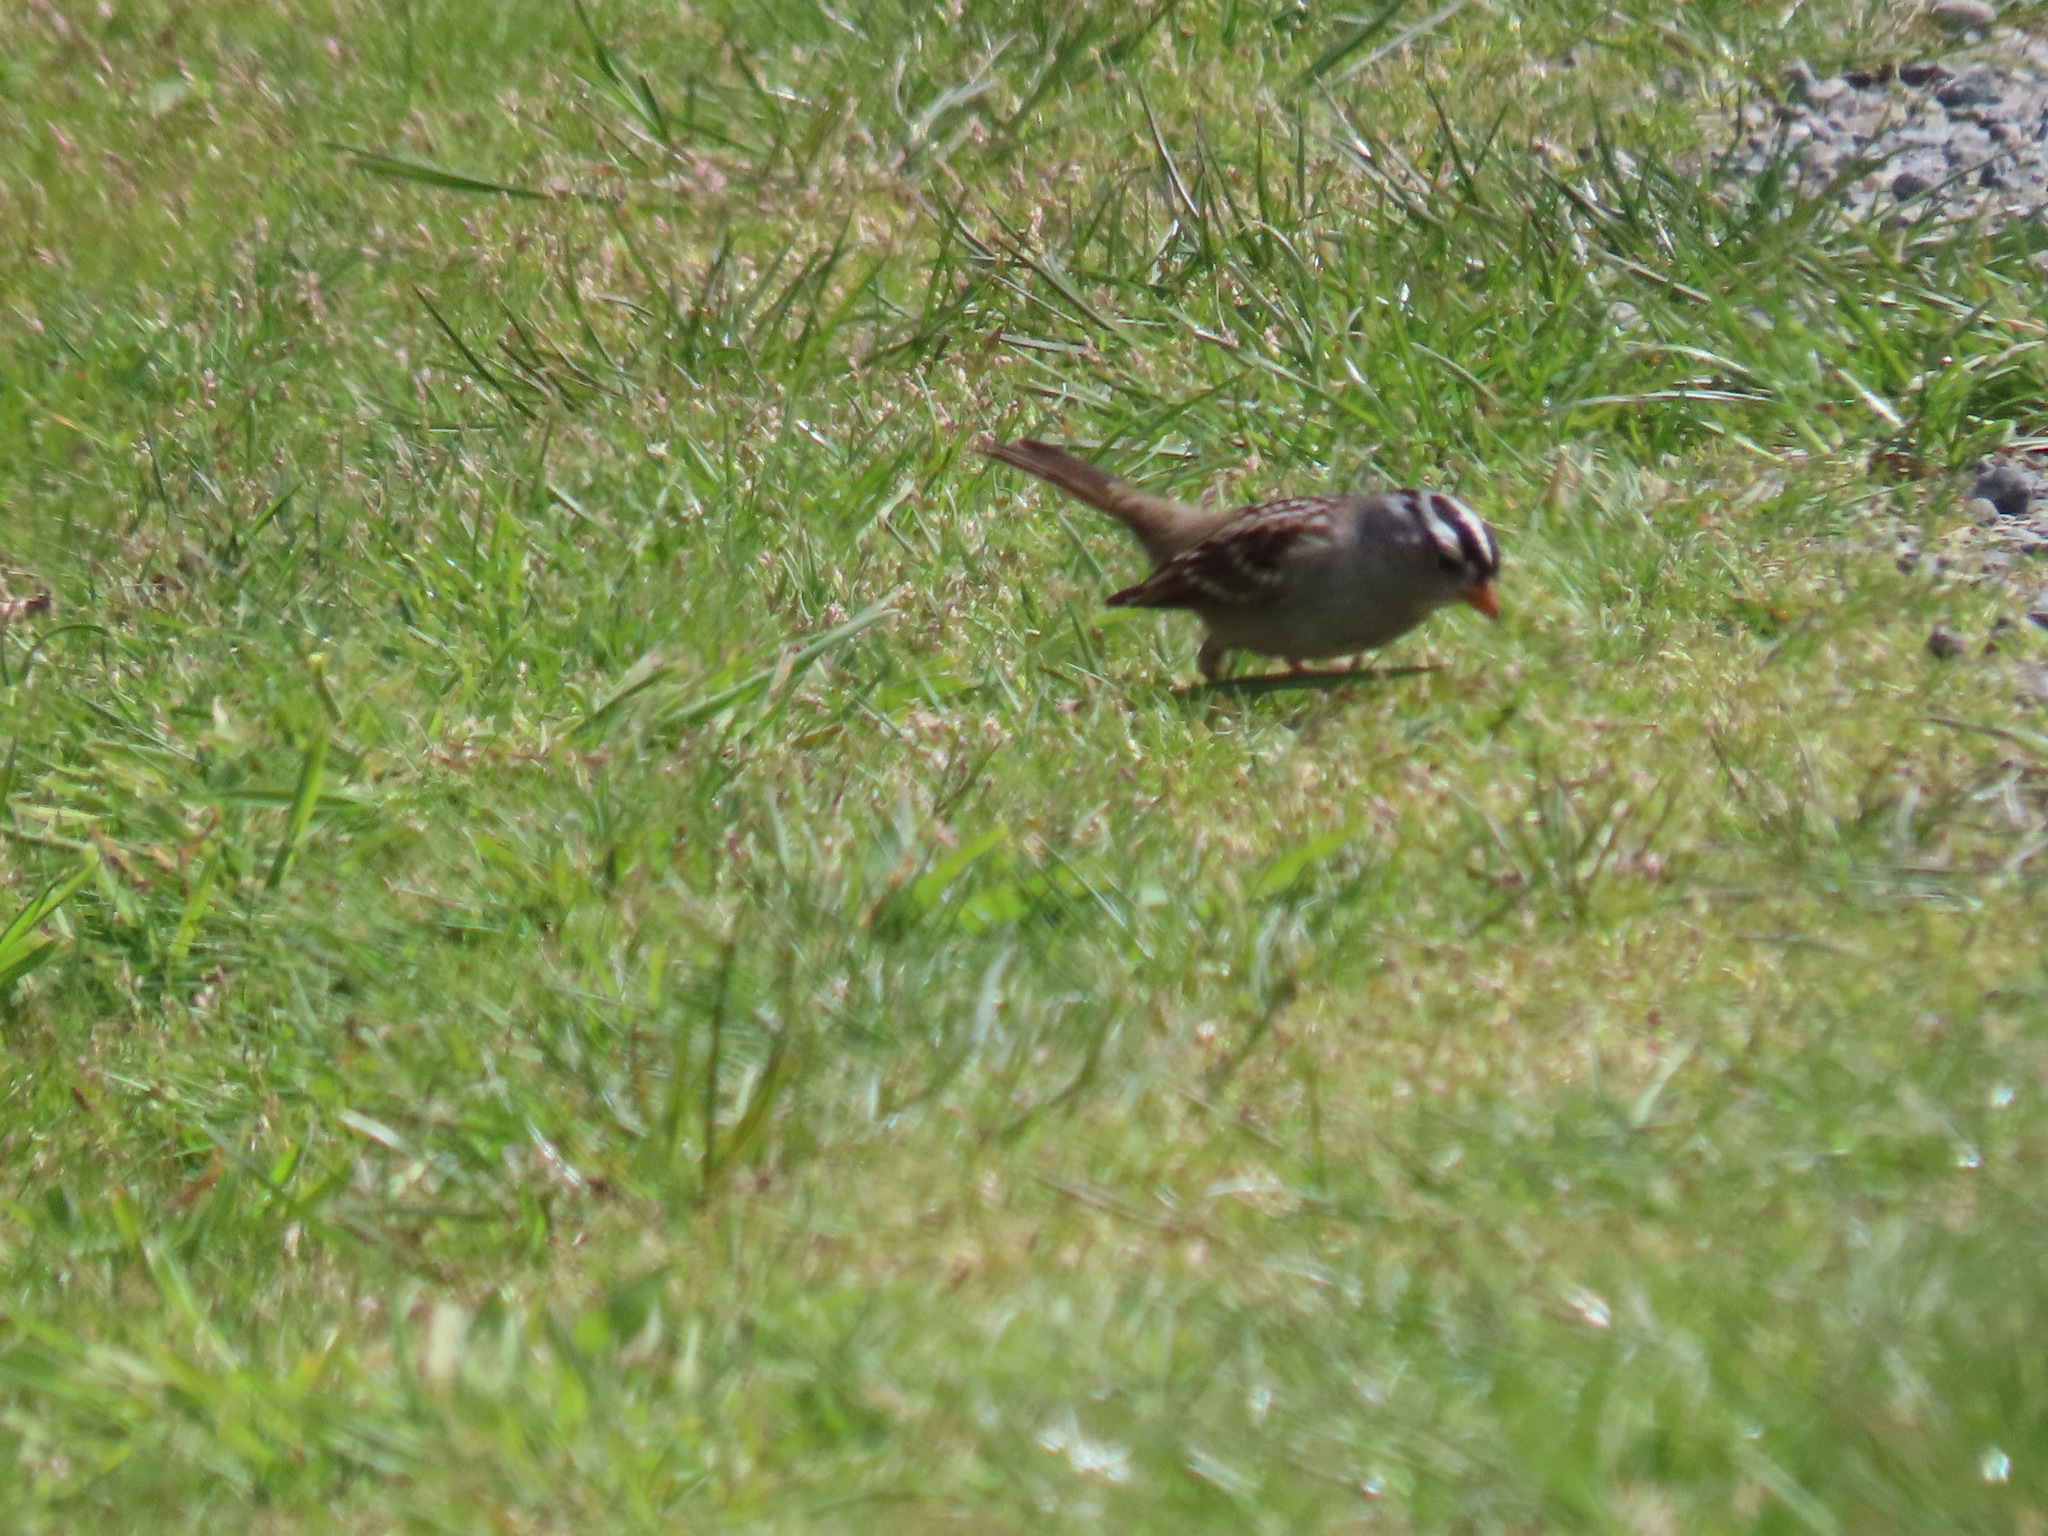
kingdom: Animalia
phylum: Chordata
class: Aves
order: Passeriformes
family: Passerellidae
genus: Zonotrichia
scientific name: Zonotrichia leucophrys
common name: White-crowned sparrow
